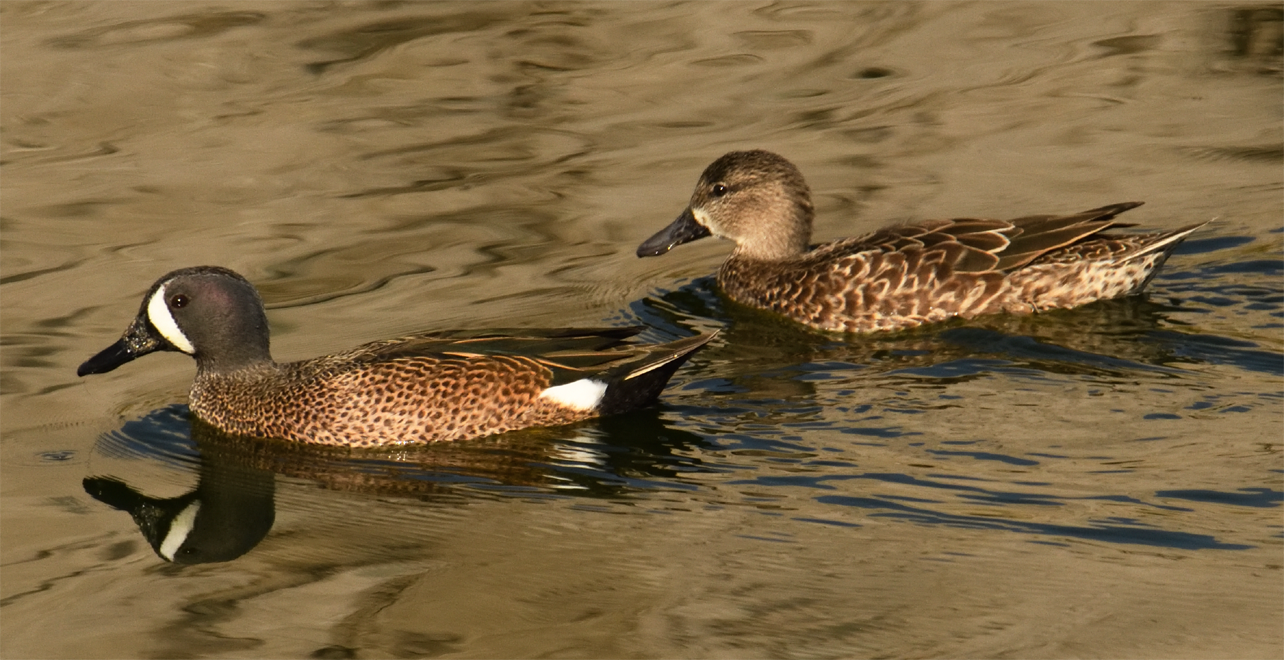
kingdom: Animalia
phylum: Chordata
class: Aves
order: Anseriformes
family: Anatidae
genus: Spatula
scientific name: Spatula discors
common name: Blue-winged teal
